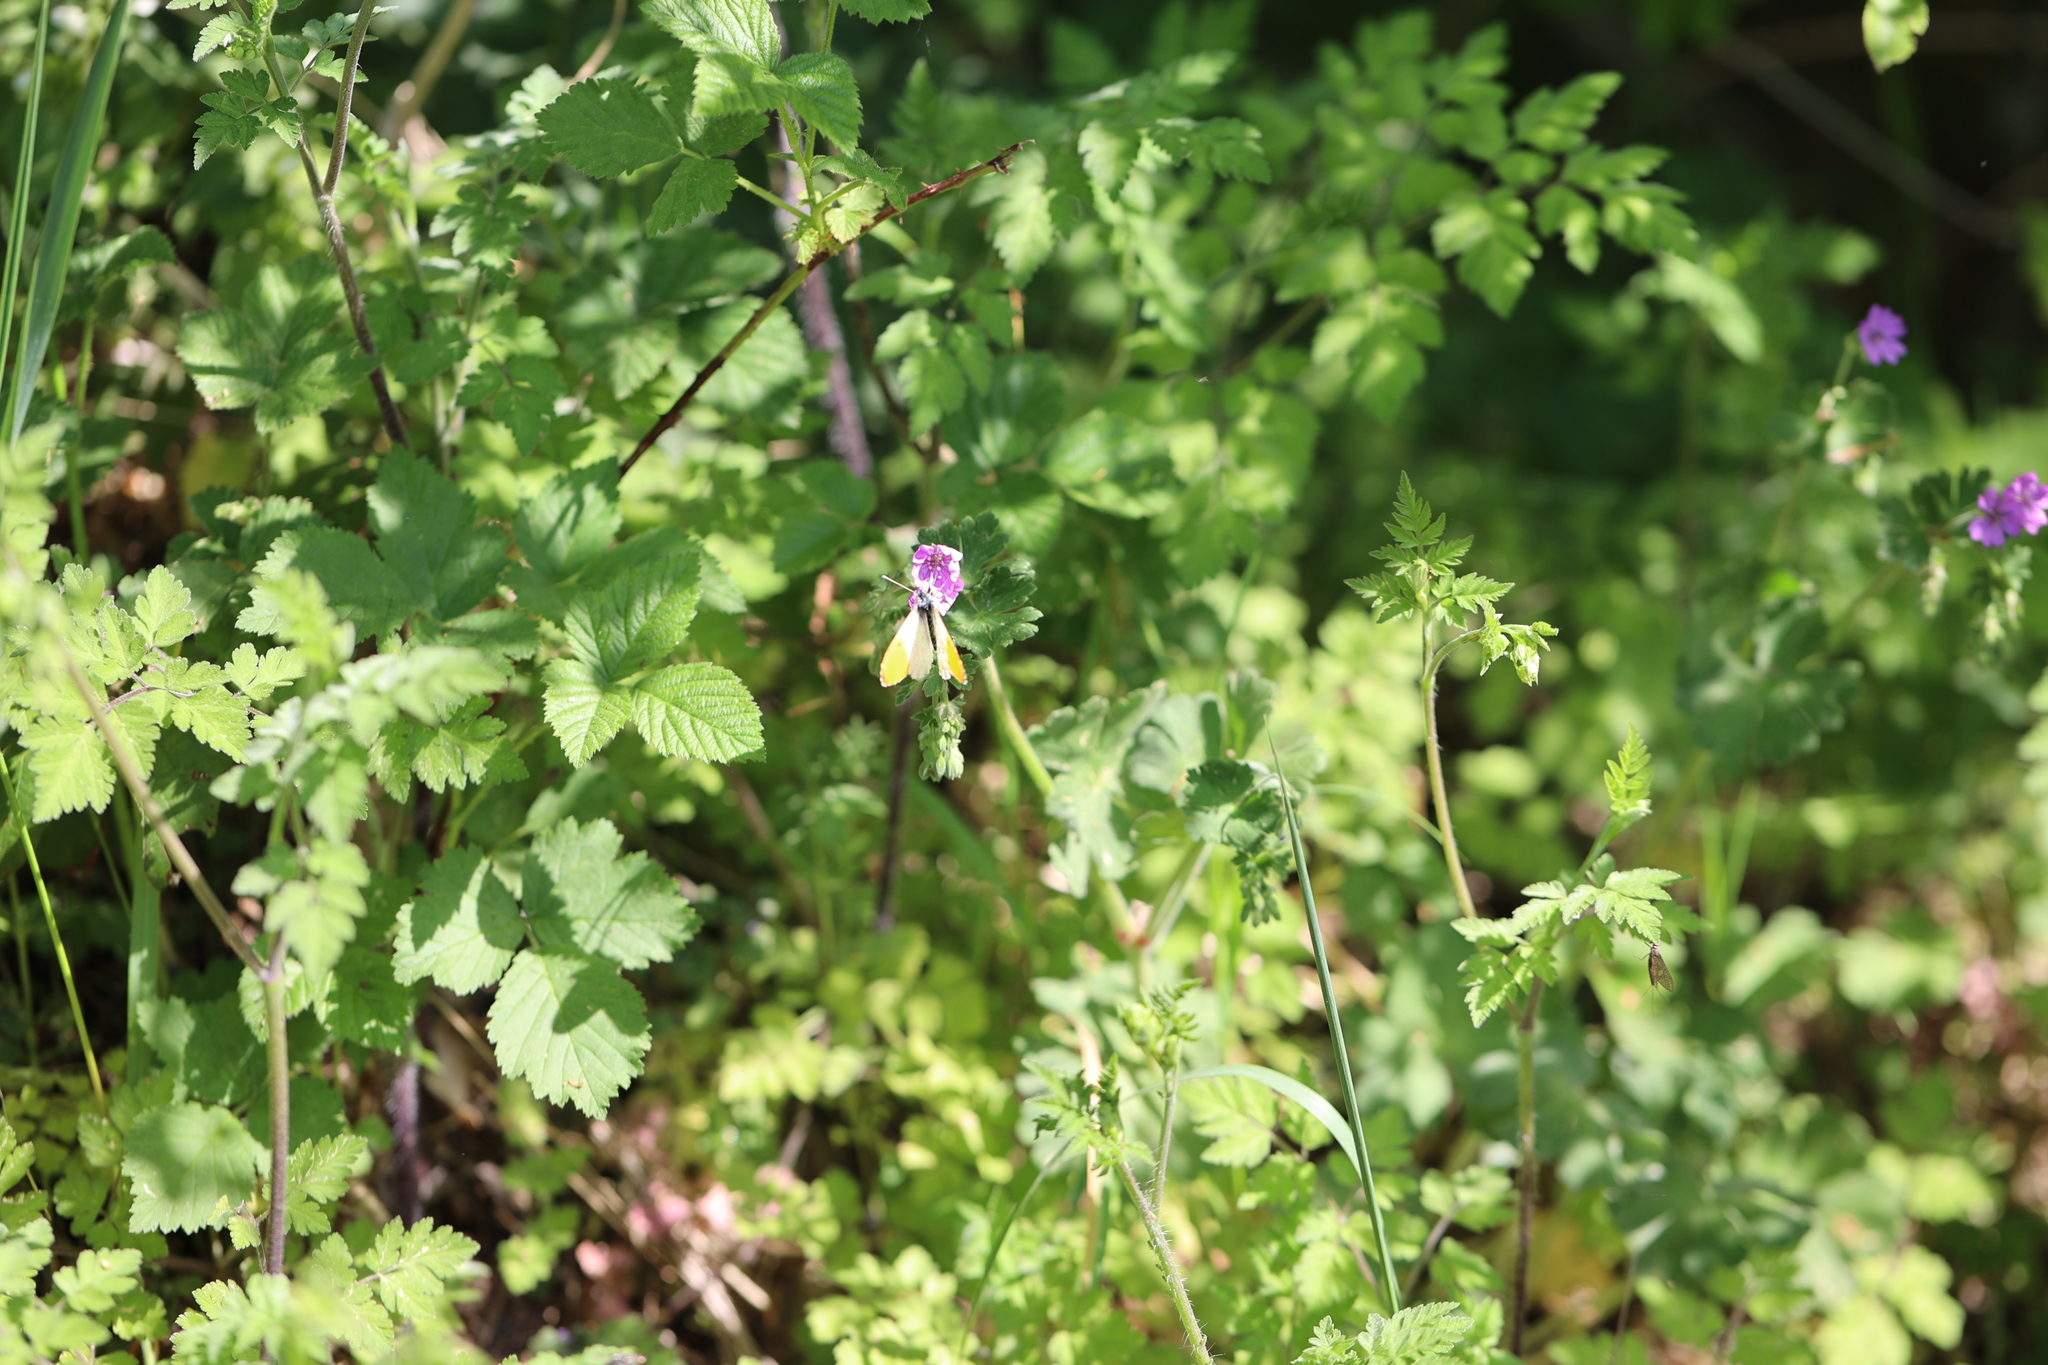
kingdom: Animalia
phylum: Arthropoda
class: Insecta
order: Lepidoptera
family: Pieridae
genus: Anthocharis
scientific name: Anthocharis cardamines
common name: Orange-tip
